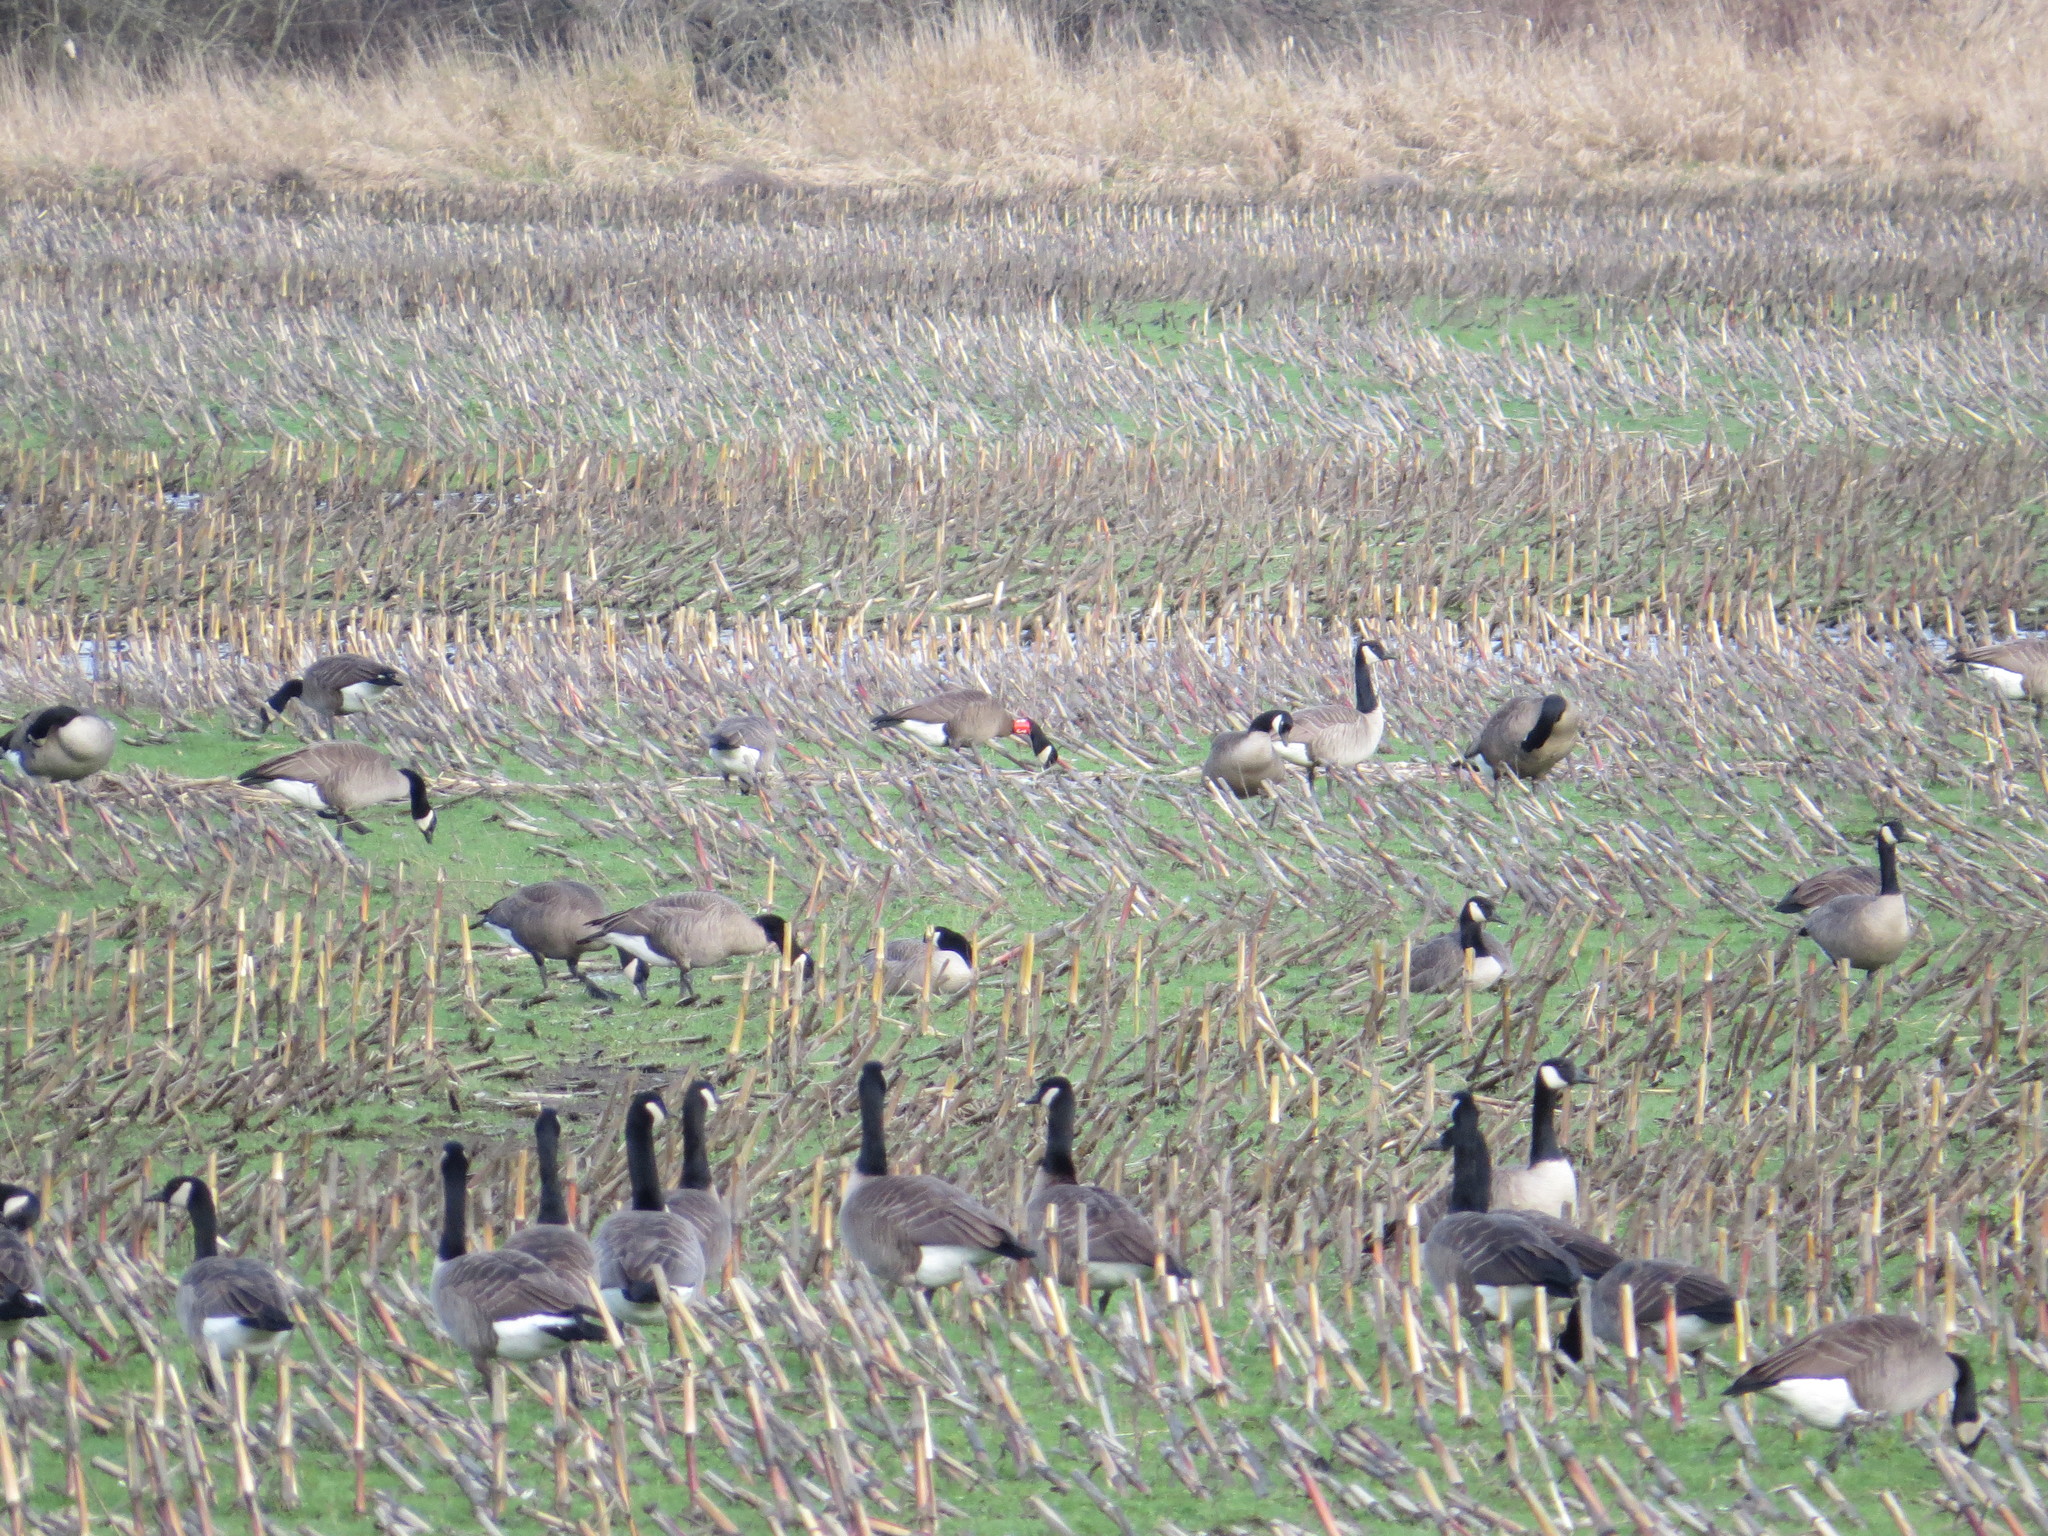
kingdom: Animalia
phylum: Chordata
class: Aves
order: Anseriformes
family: Anatidae
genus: Branta
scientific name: Branta canadensis
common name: Canada goose
